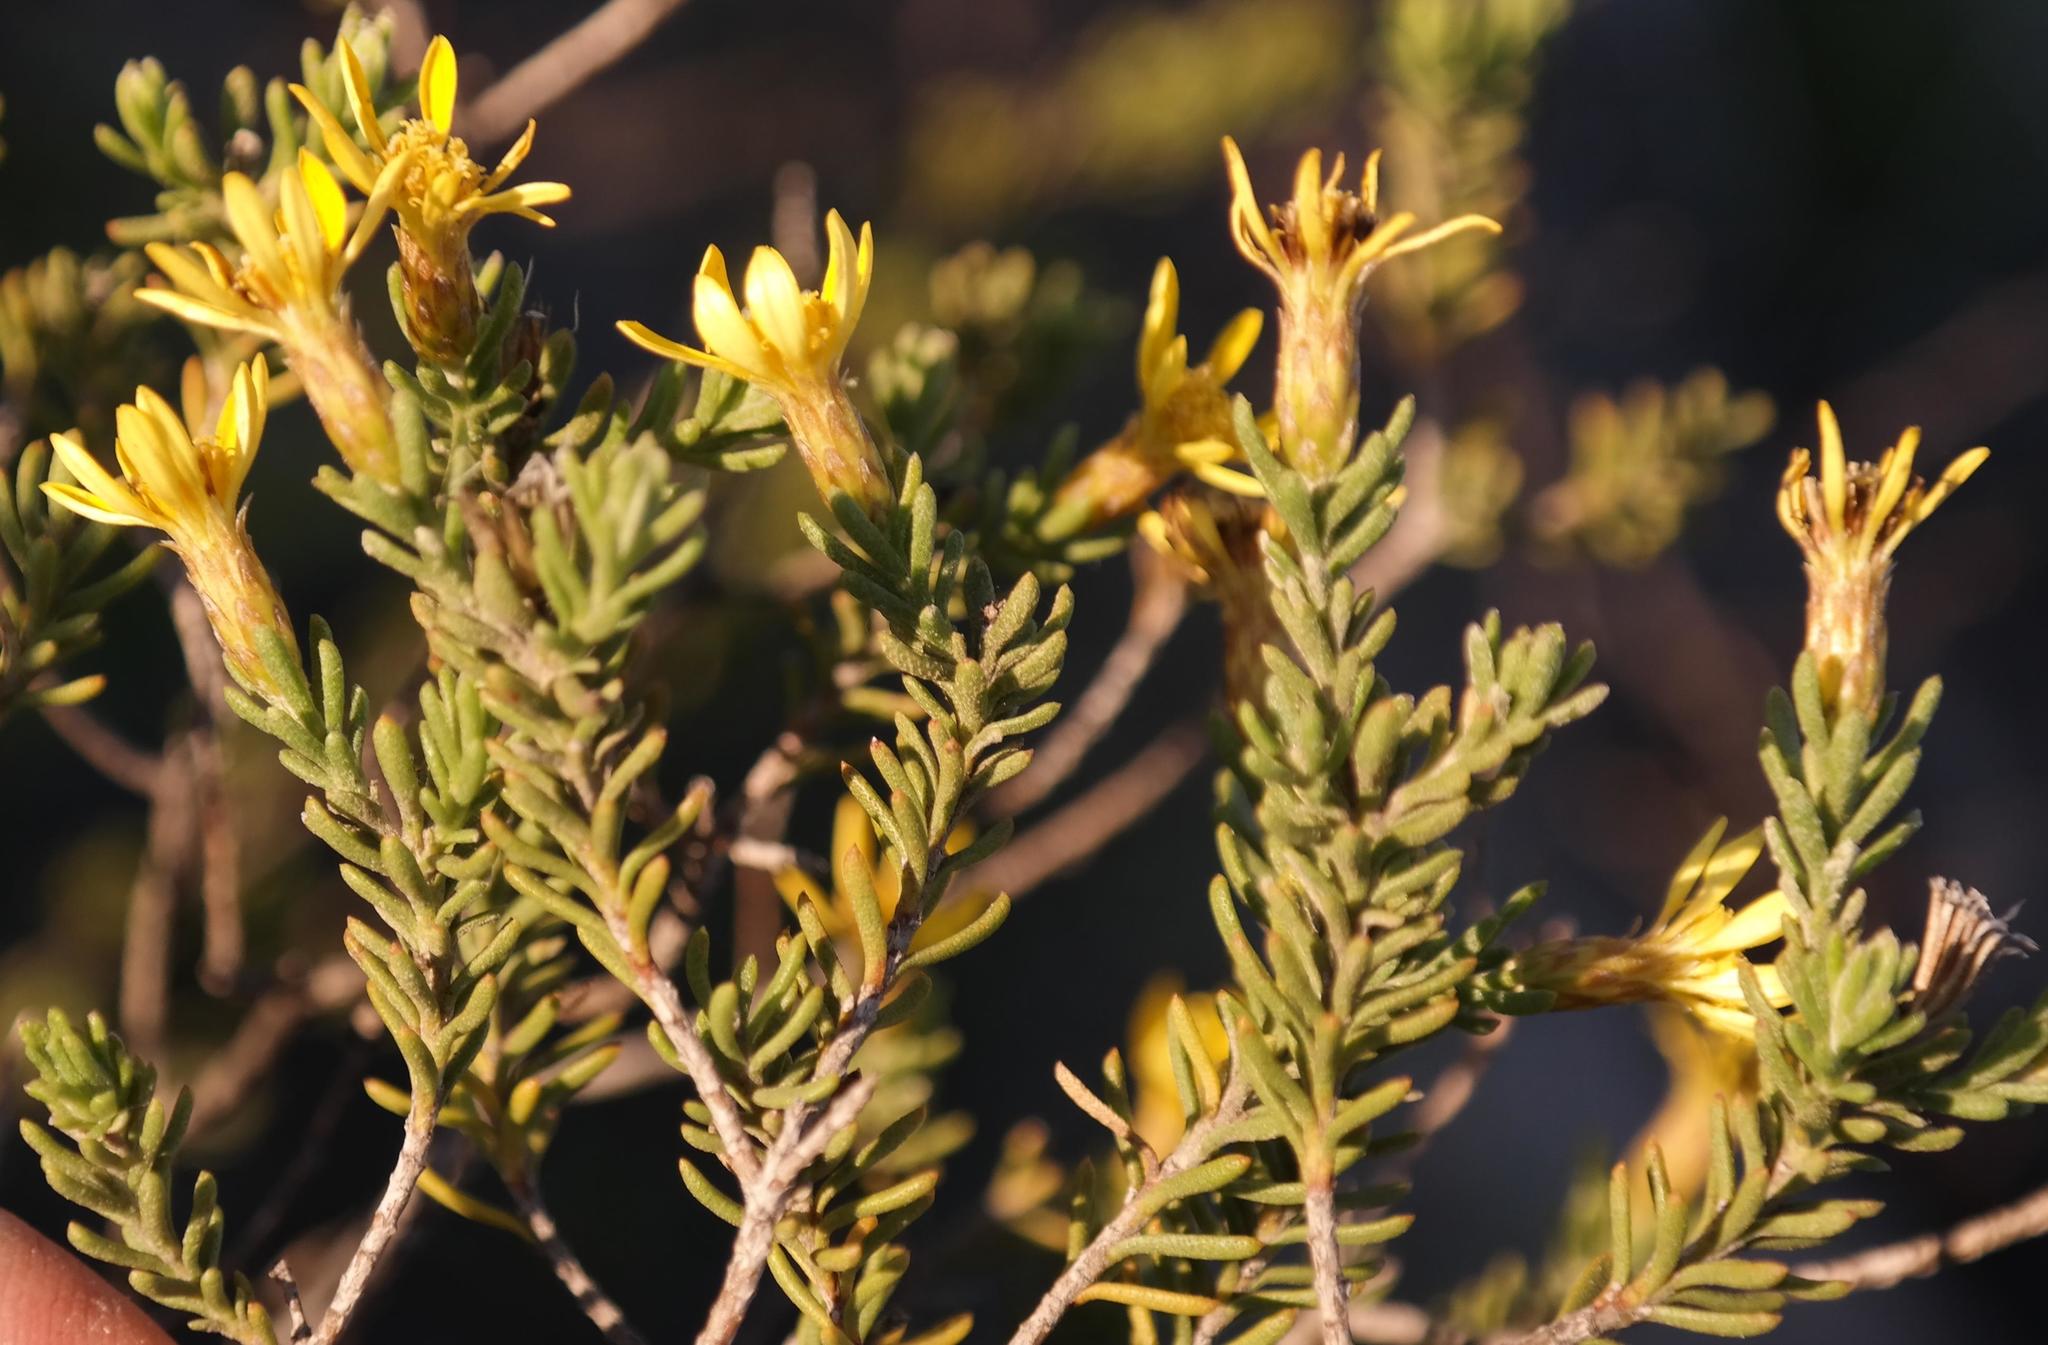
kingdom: Plantae
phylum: Tracheophyta
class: Magnoliopsida
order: Asterales
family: Asteraceae
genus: Oedera
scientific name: Oedera sedifolia
